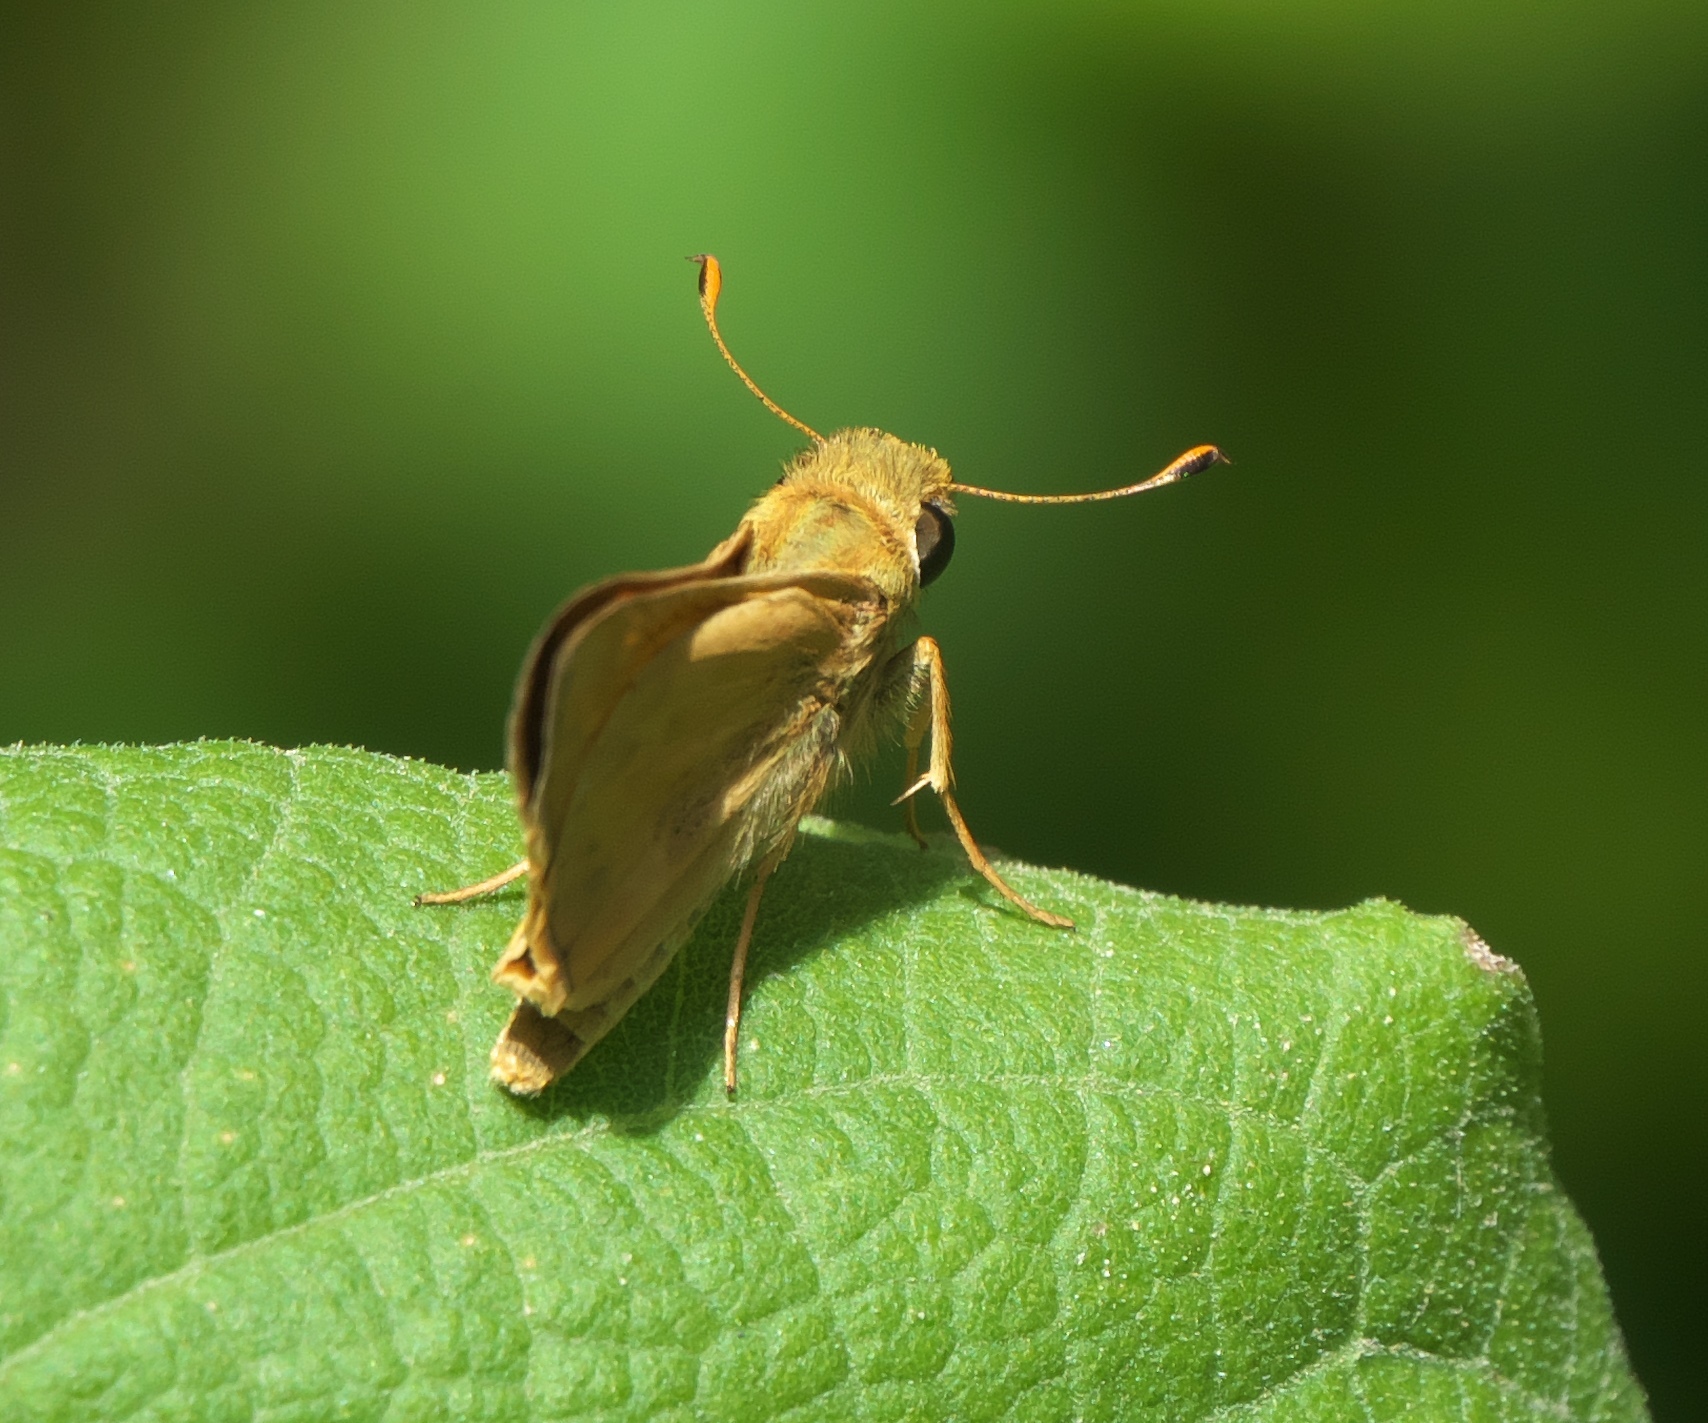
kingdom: Animalia
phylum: Arthropoda
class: Insecta
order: Lepidoptera
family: Hesperiidae
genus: Atalopedes
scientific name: Atalopedes
